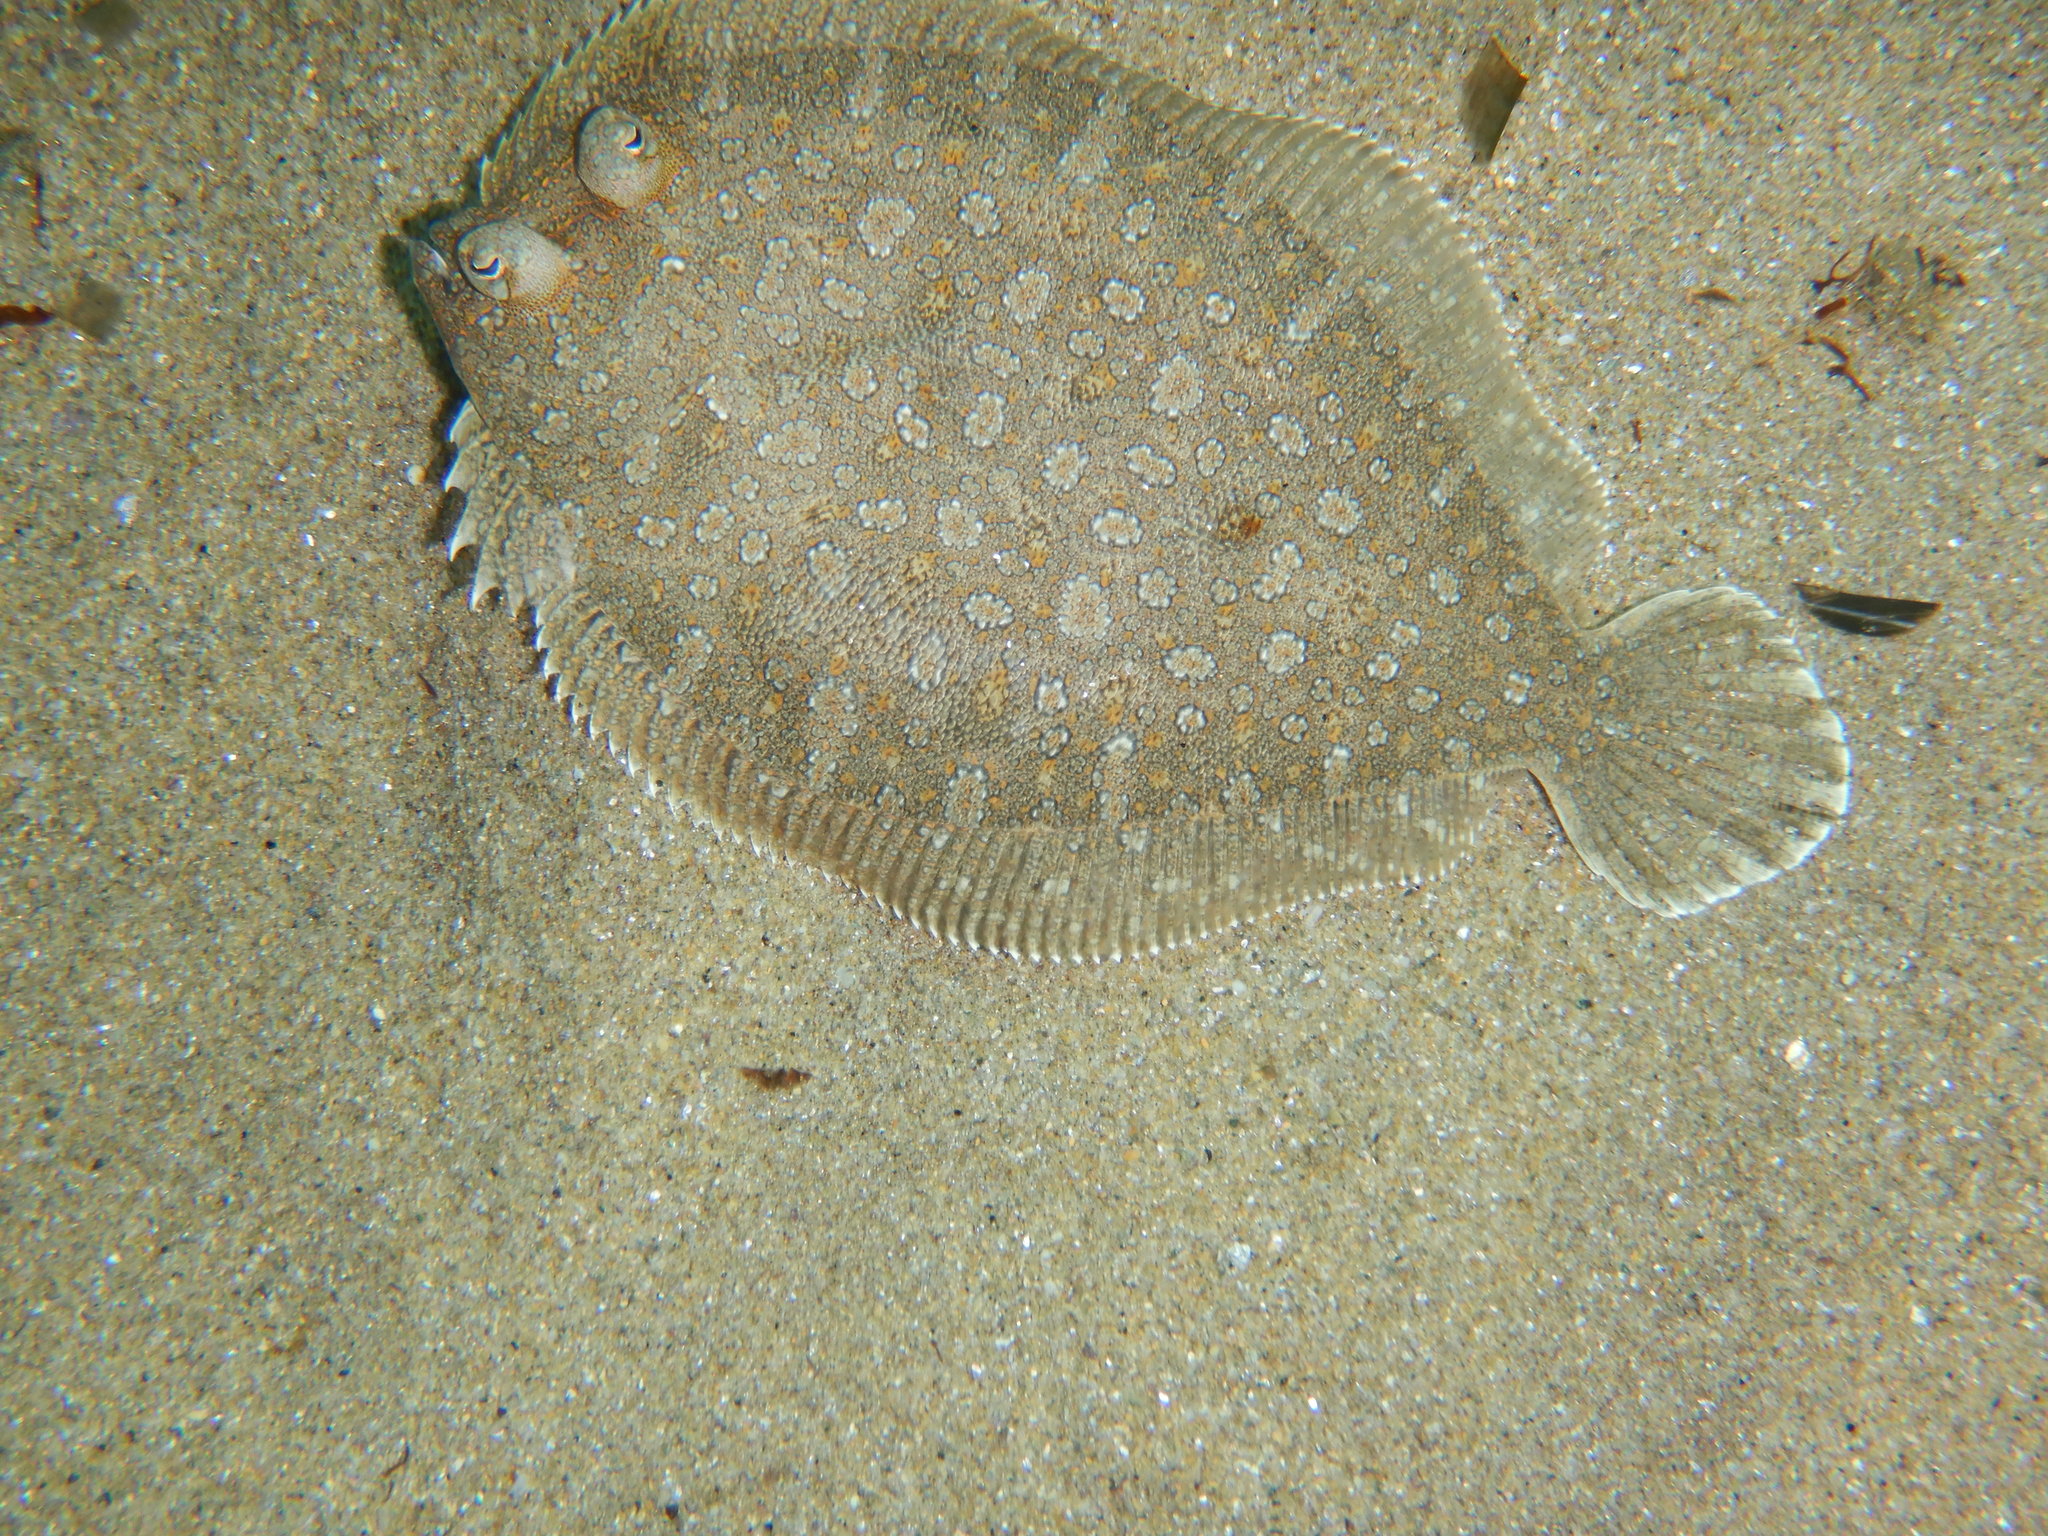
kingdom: Animalia
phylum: Chordata
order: Pleuronectiformes
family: Bothidae
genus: Bothus
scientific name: Bothus podas
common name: Wide-eyed flounder
